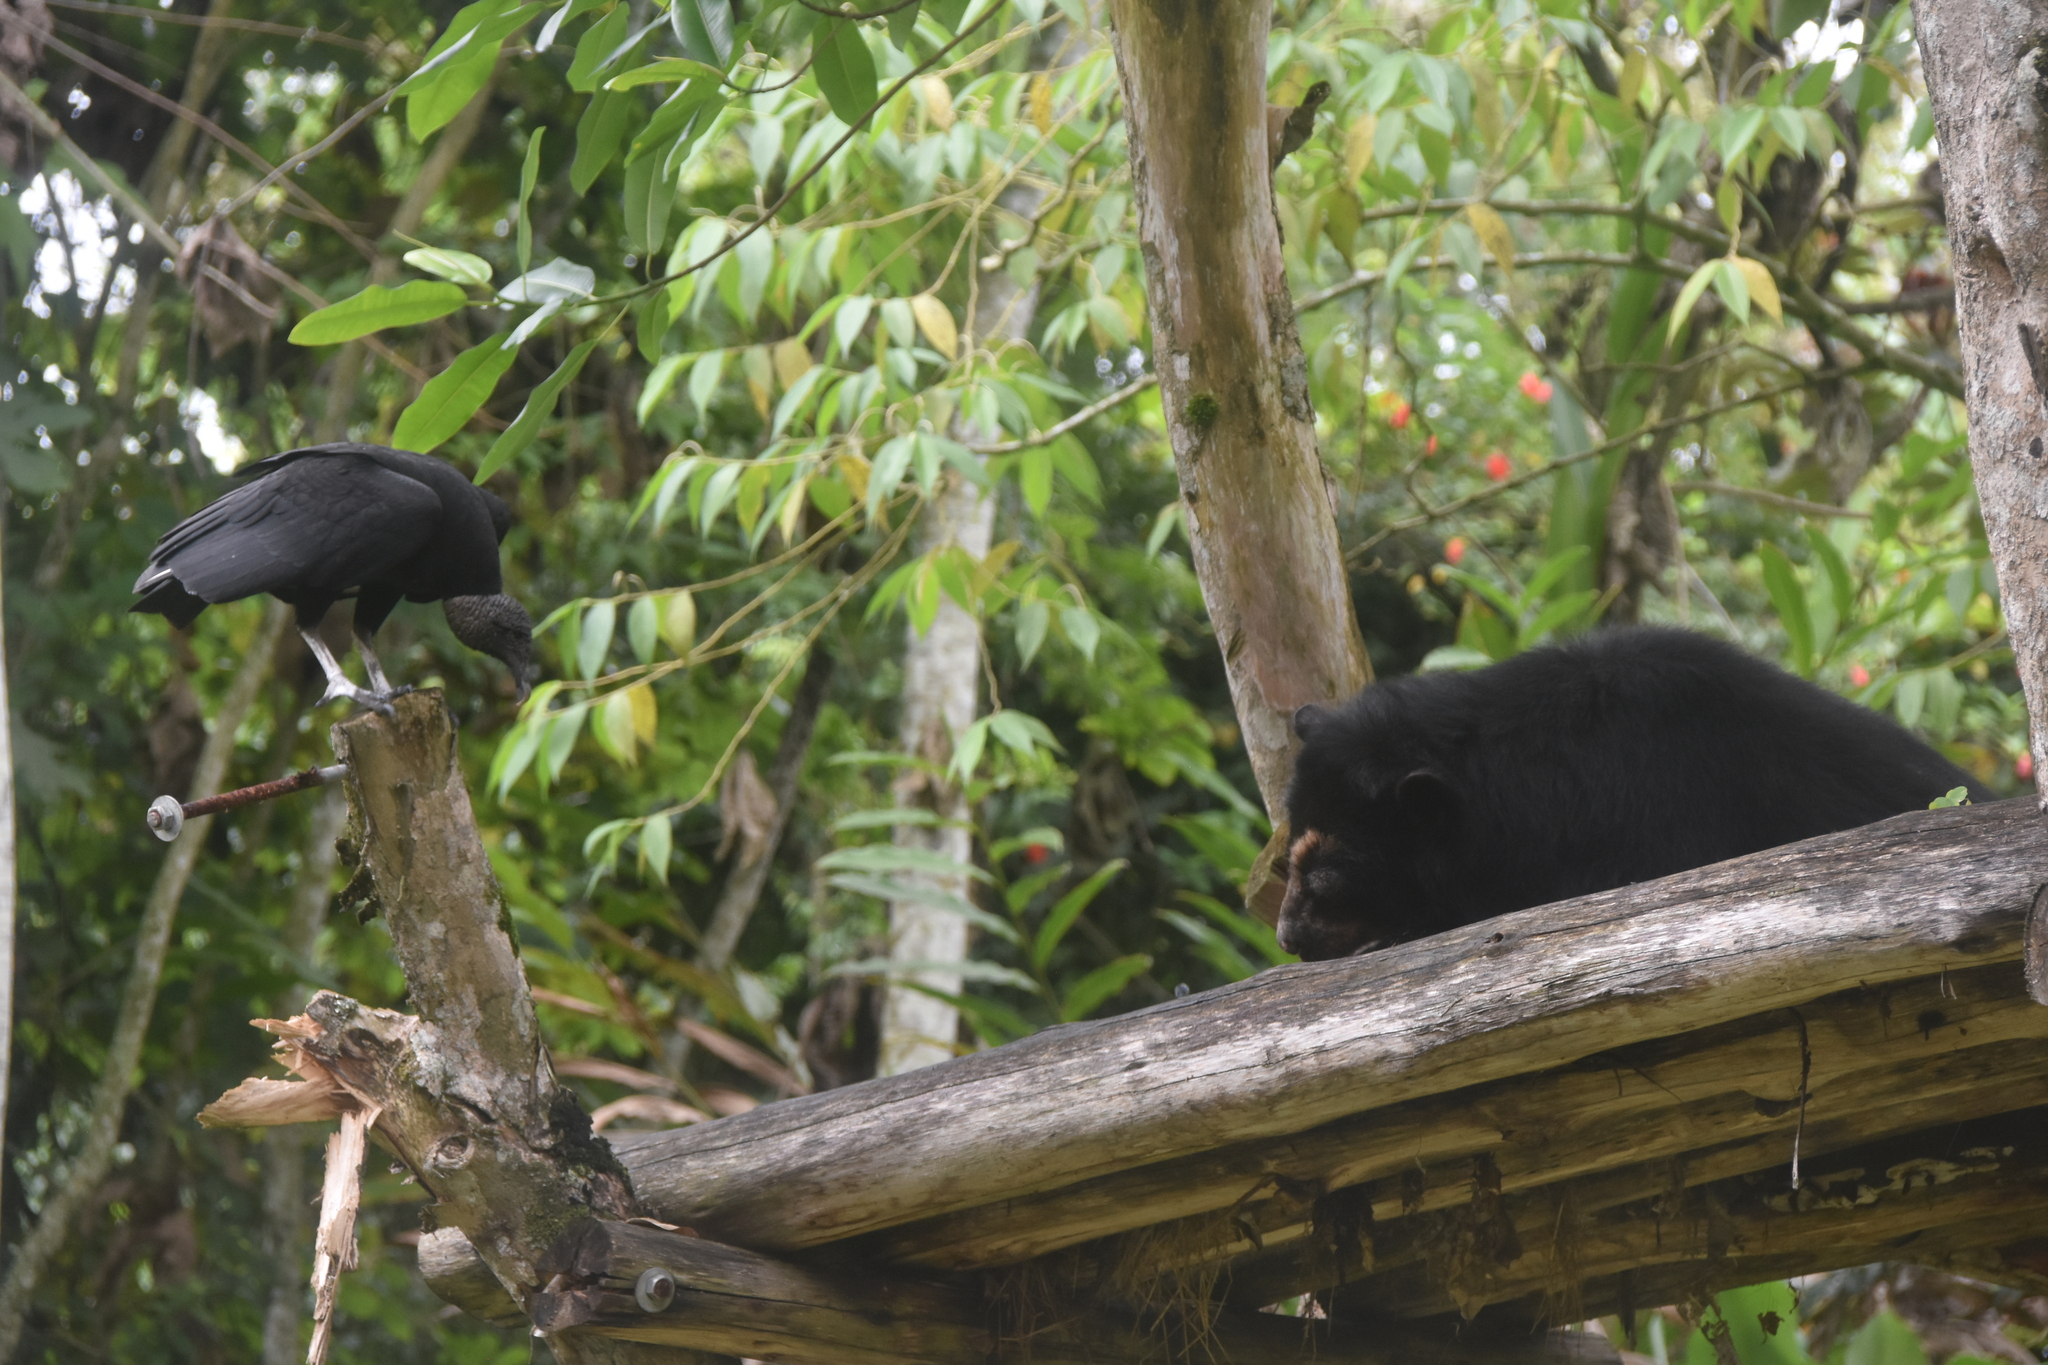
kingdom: Animalia
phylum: Chordata
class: Aves
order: Accipitriformes
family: Cathartidae
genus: Coragyps
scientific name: Coragyps atratus
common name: Black vulture
